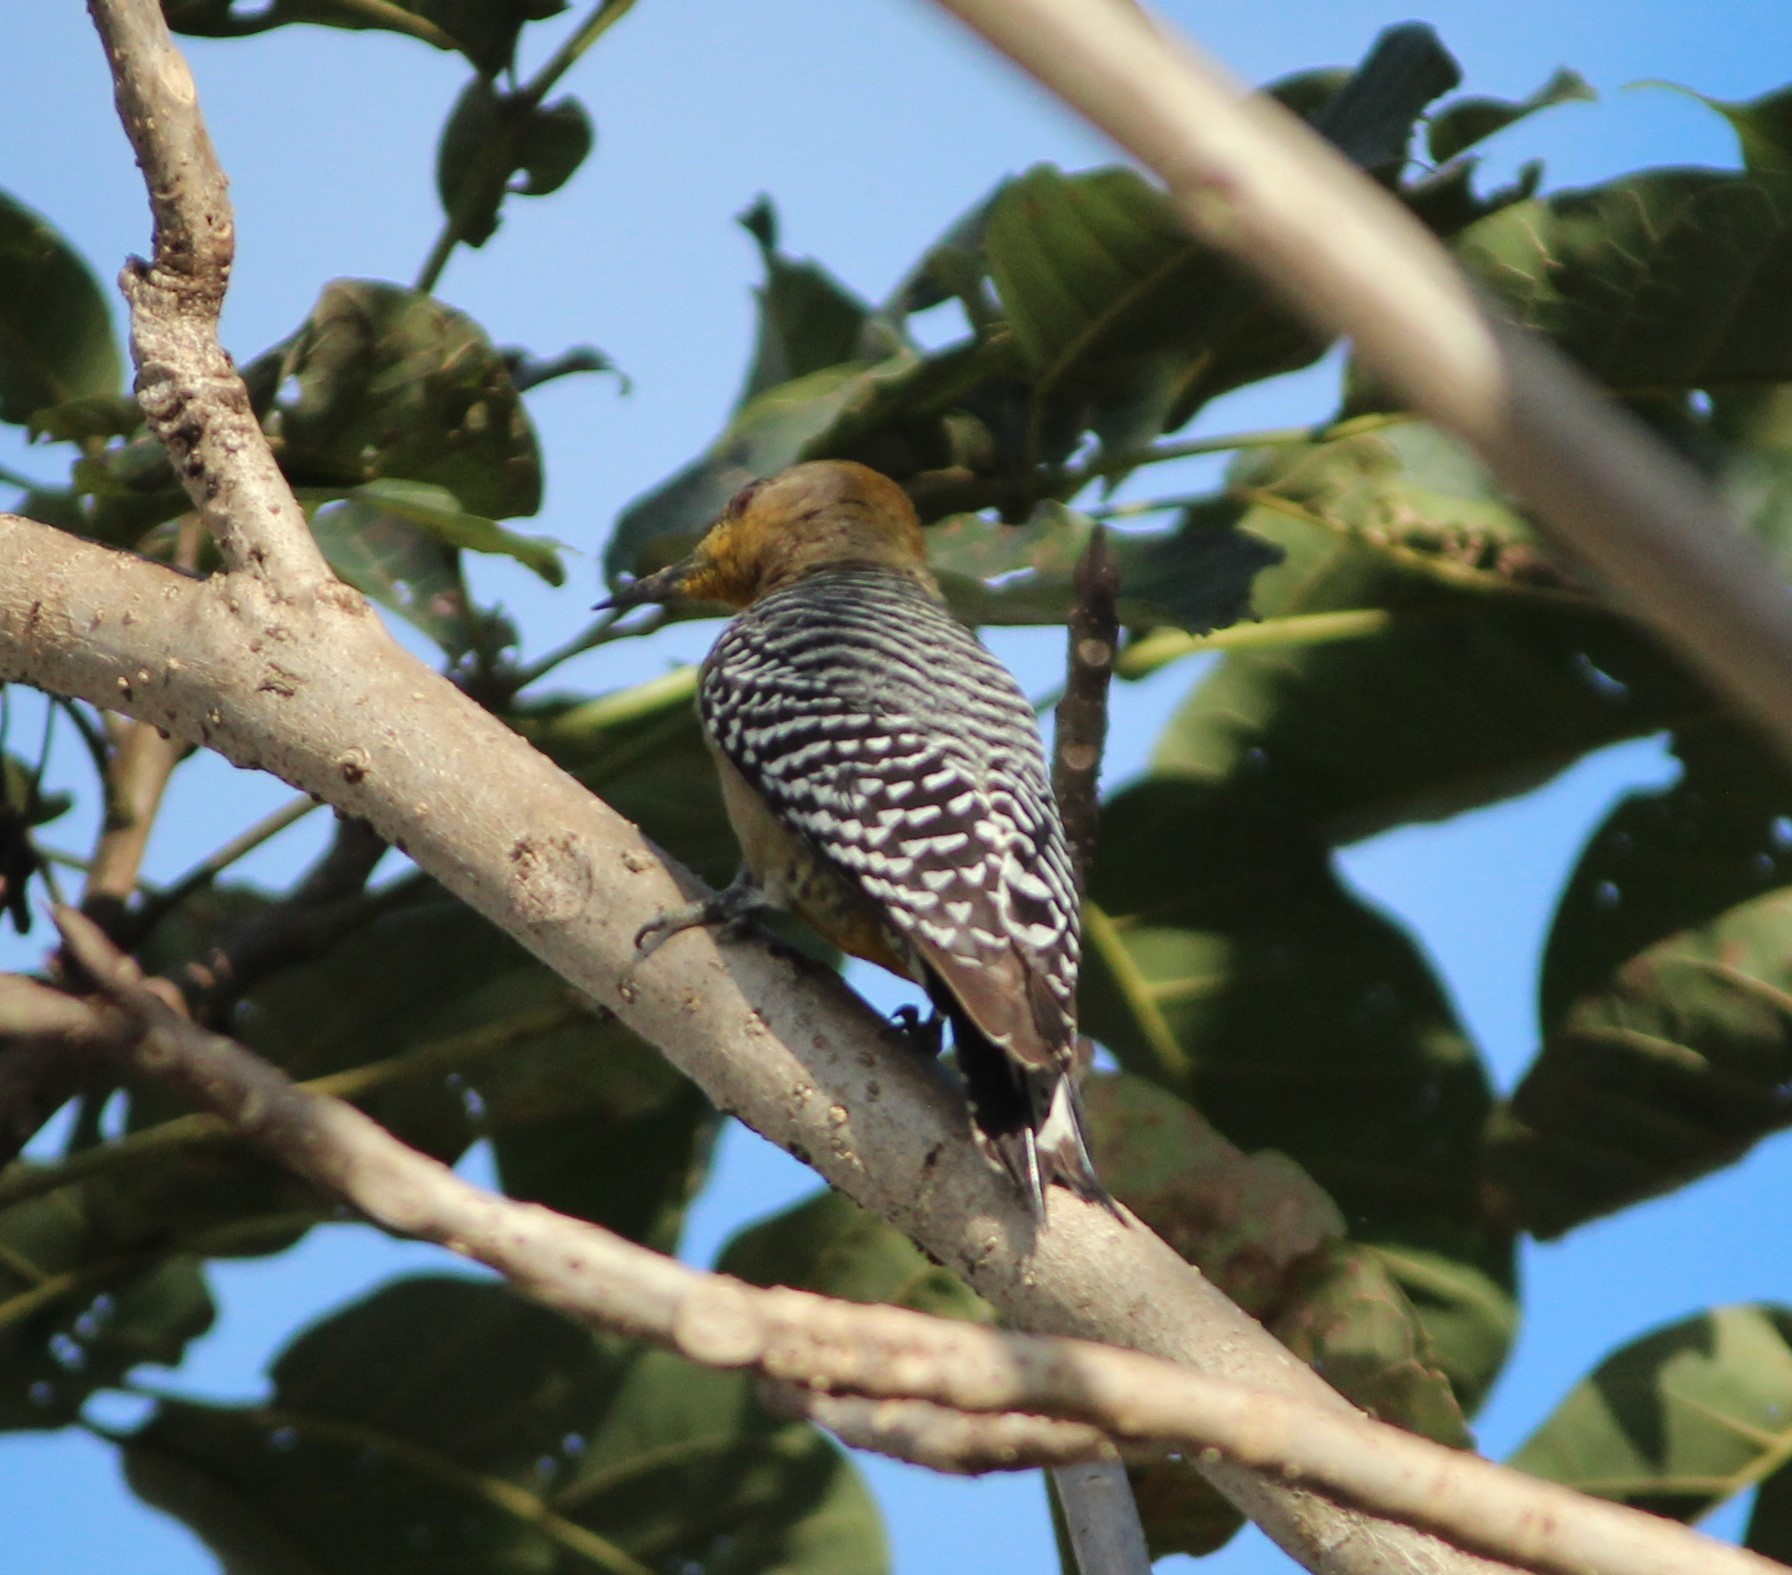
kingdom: Animalia
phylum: Chordata
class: Aves
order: Piciformes
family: Picidae
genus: Melanerpes
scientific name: Melanerpes hoffmannii
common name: Hoffmann's woodpecker
